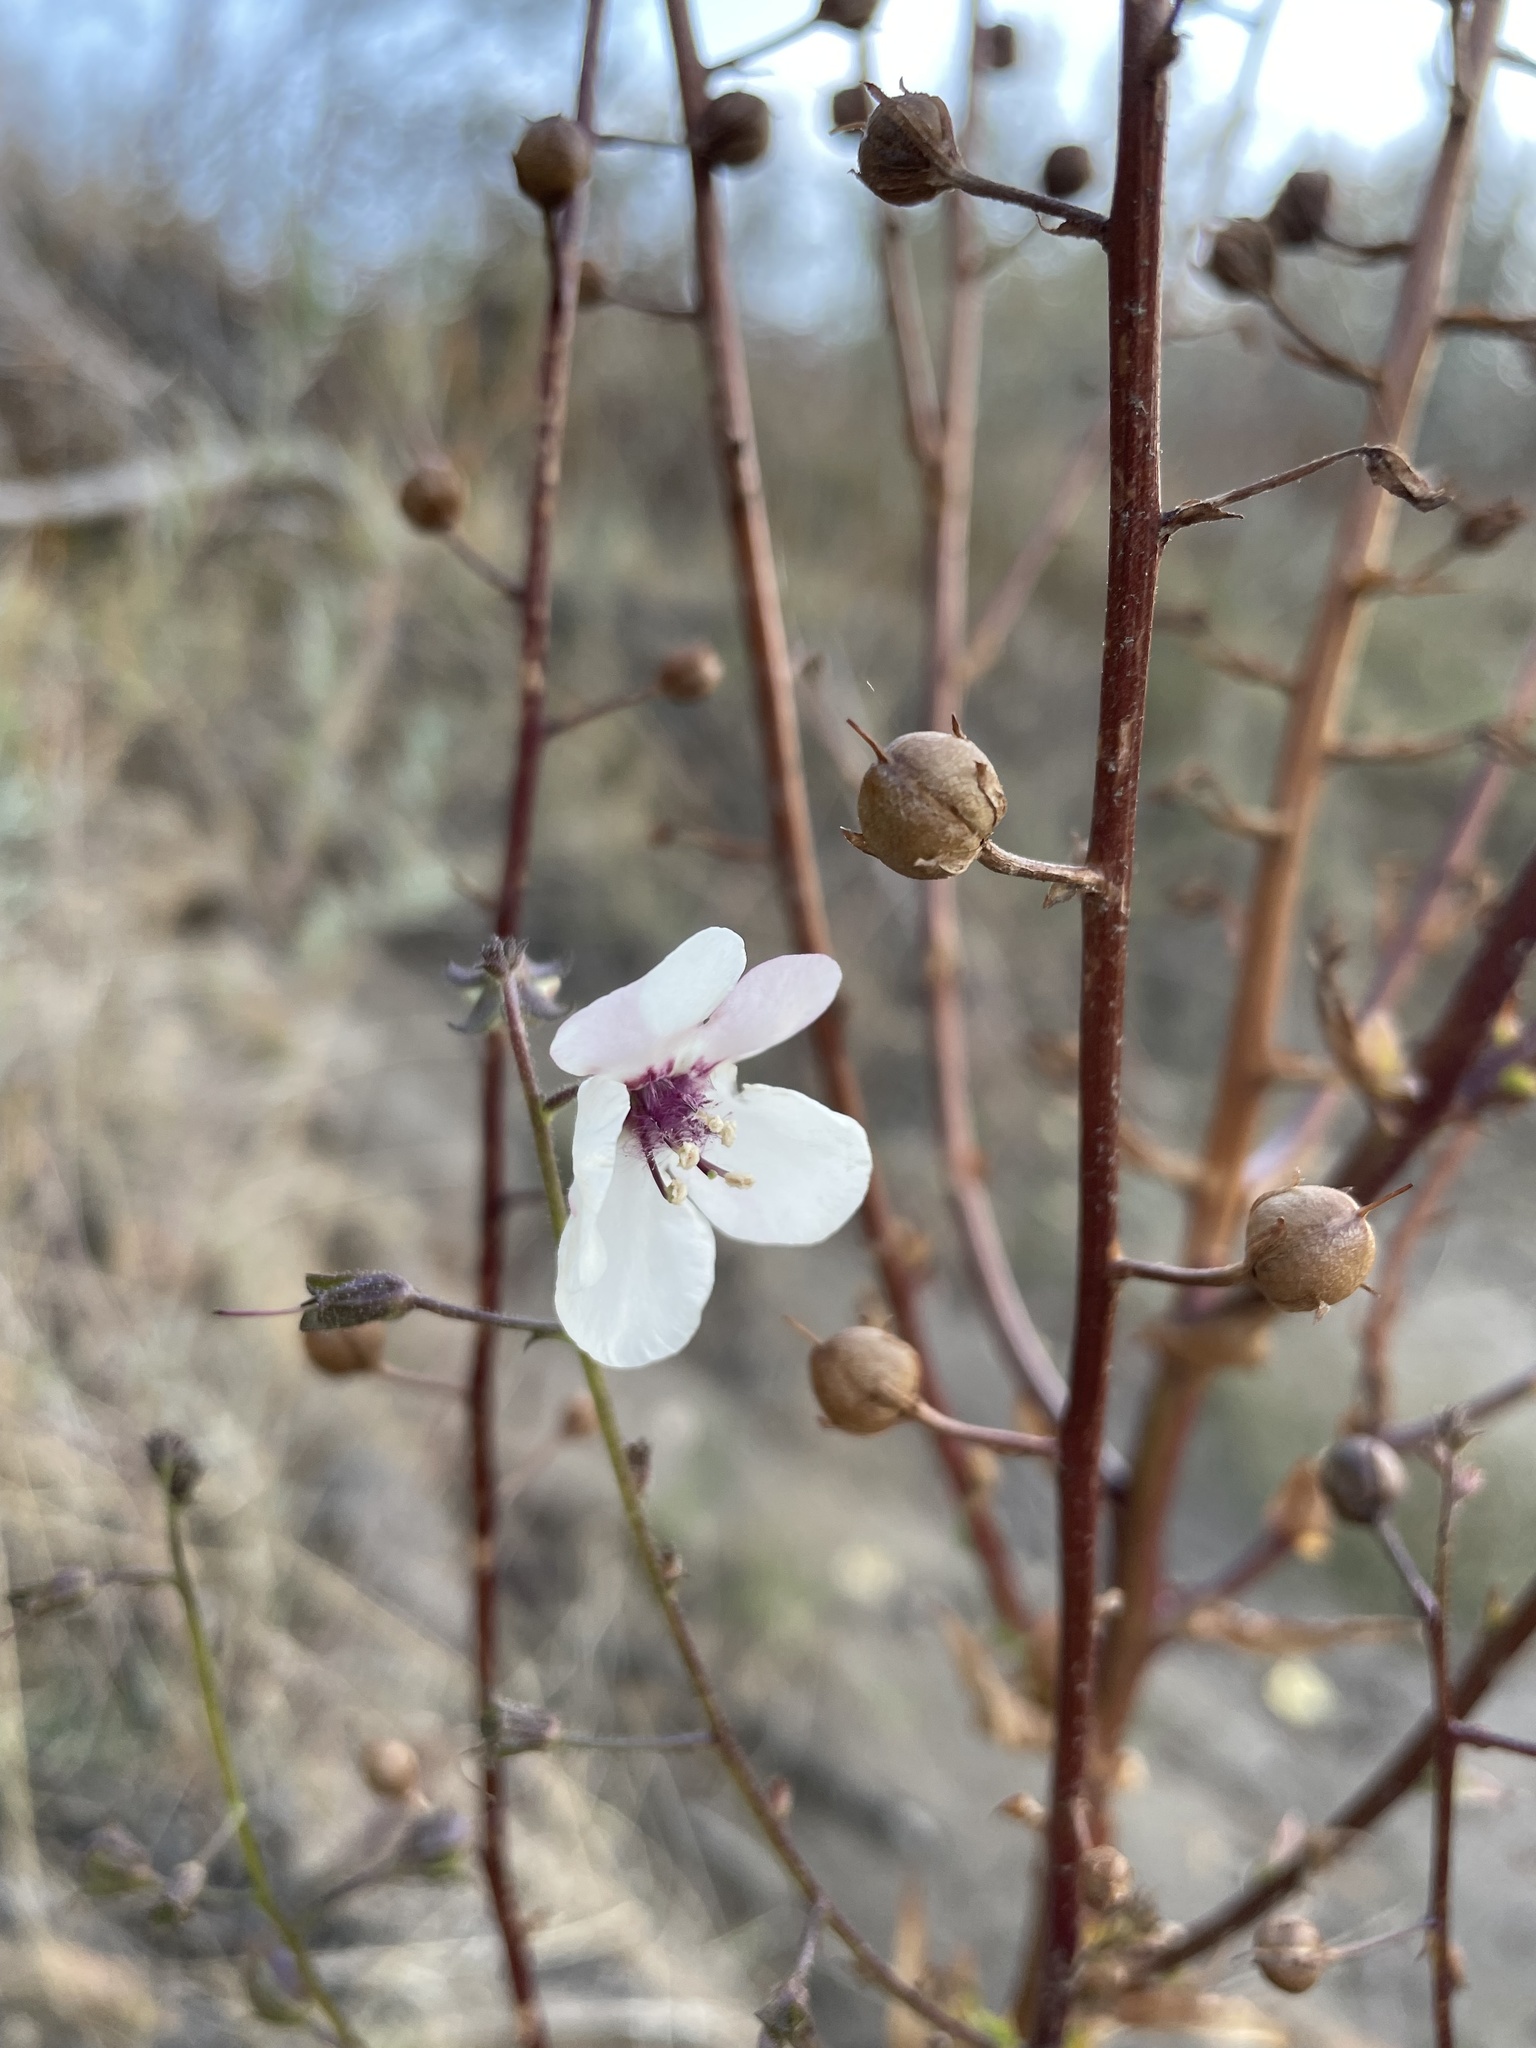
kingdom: Plantae
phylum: Tracheophyta
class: Magnoliopsida
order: Lamiales
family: Scrophulariaceae
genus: Verbascum
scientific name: Verbascum blattaria
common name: Moth mullein
